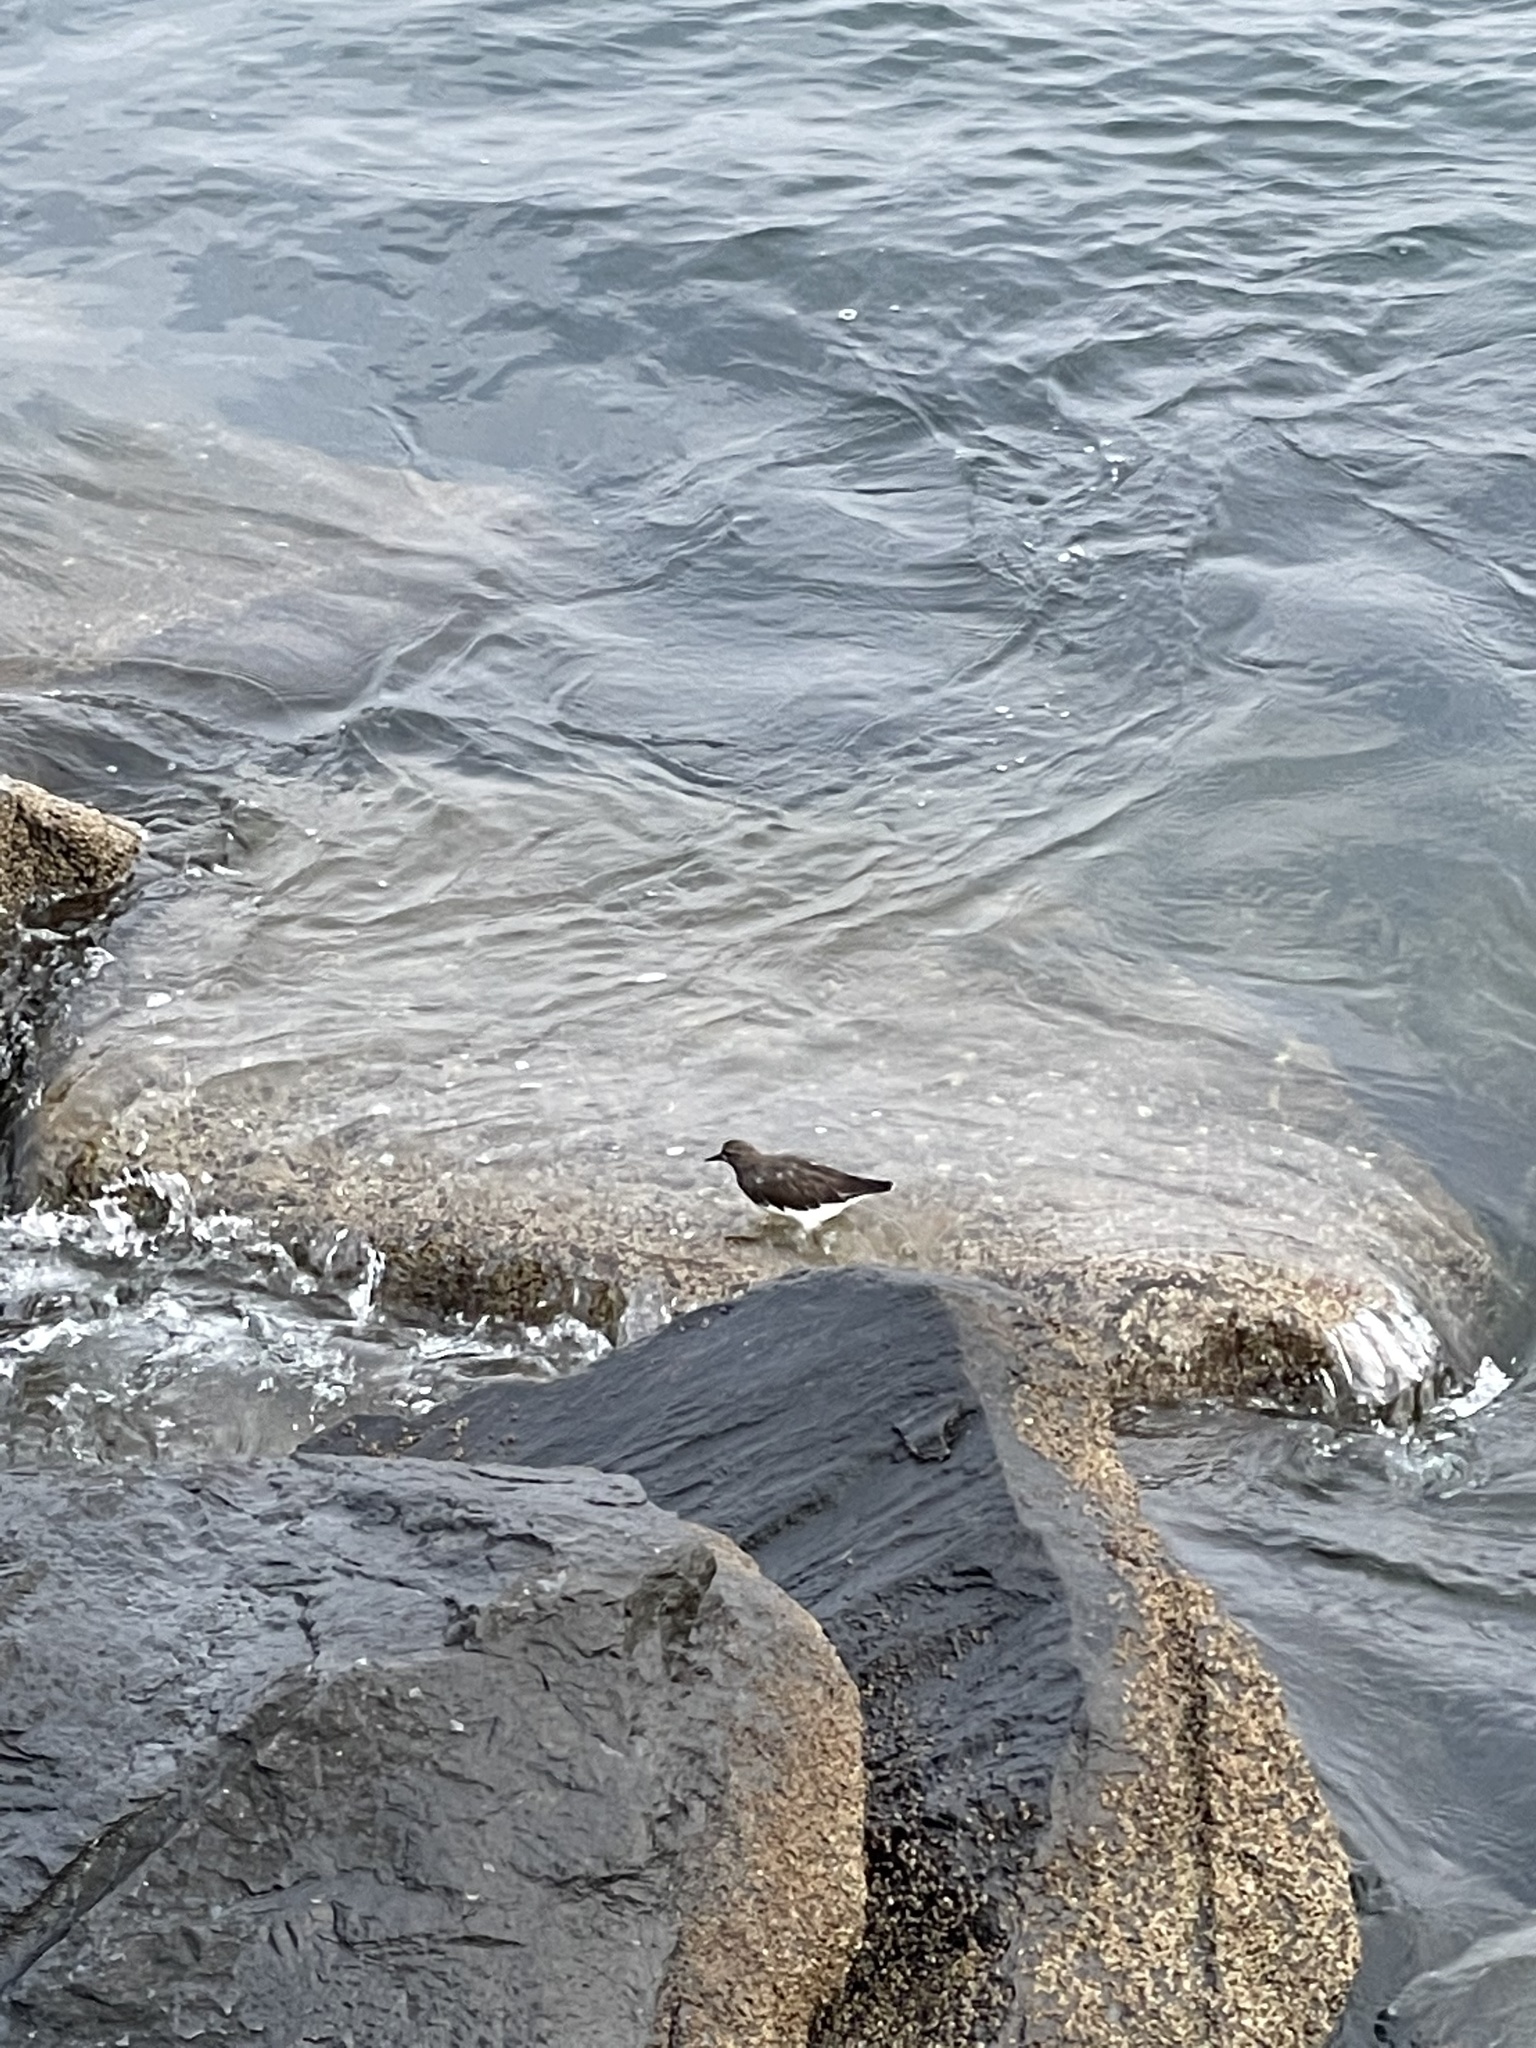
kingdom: Animalia
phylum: Chordata
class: Aves
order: Charadriiformes
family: Scolopacidae
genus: Arenaria
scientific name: Arenaria melanocephala
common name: Black turnstone
